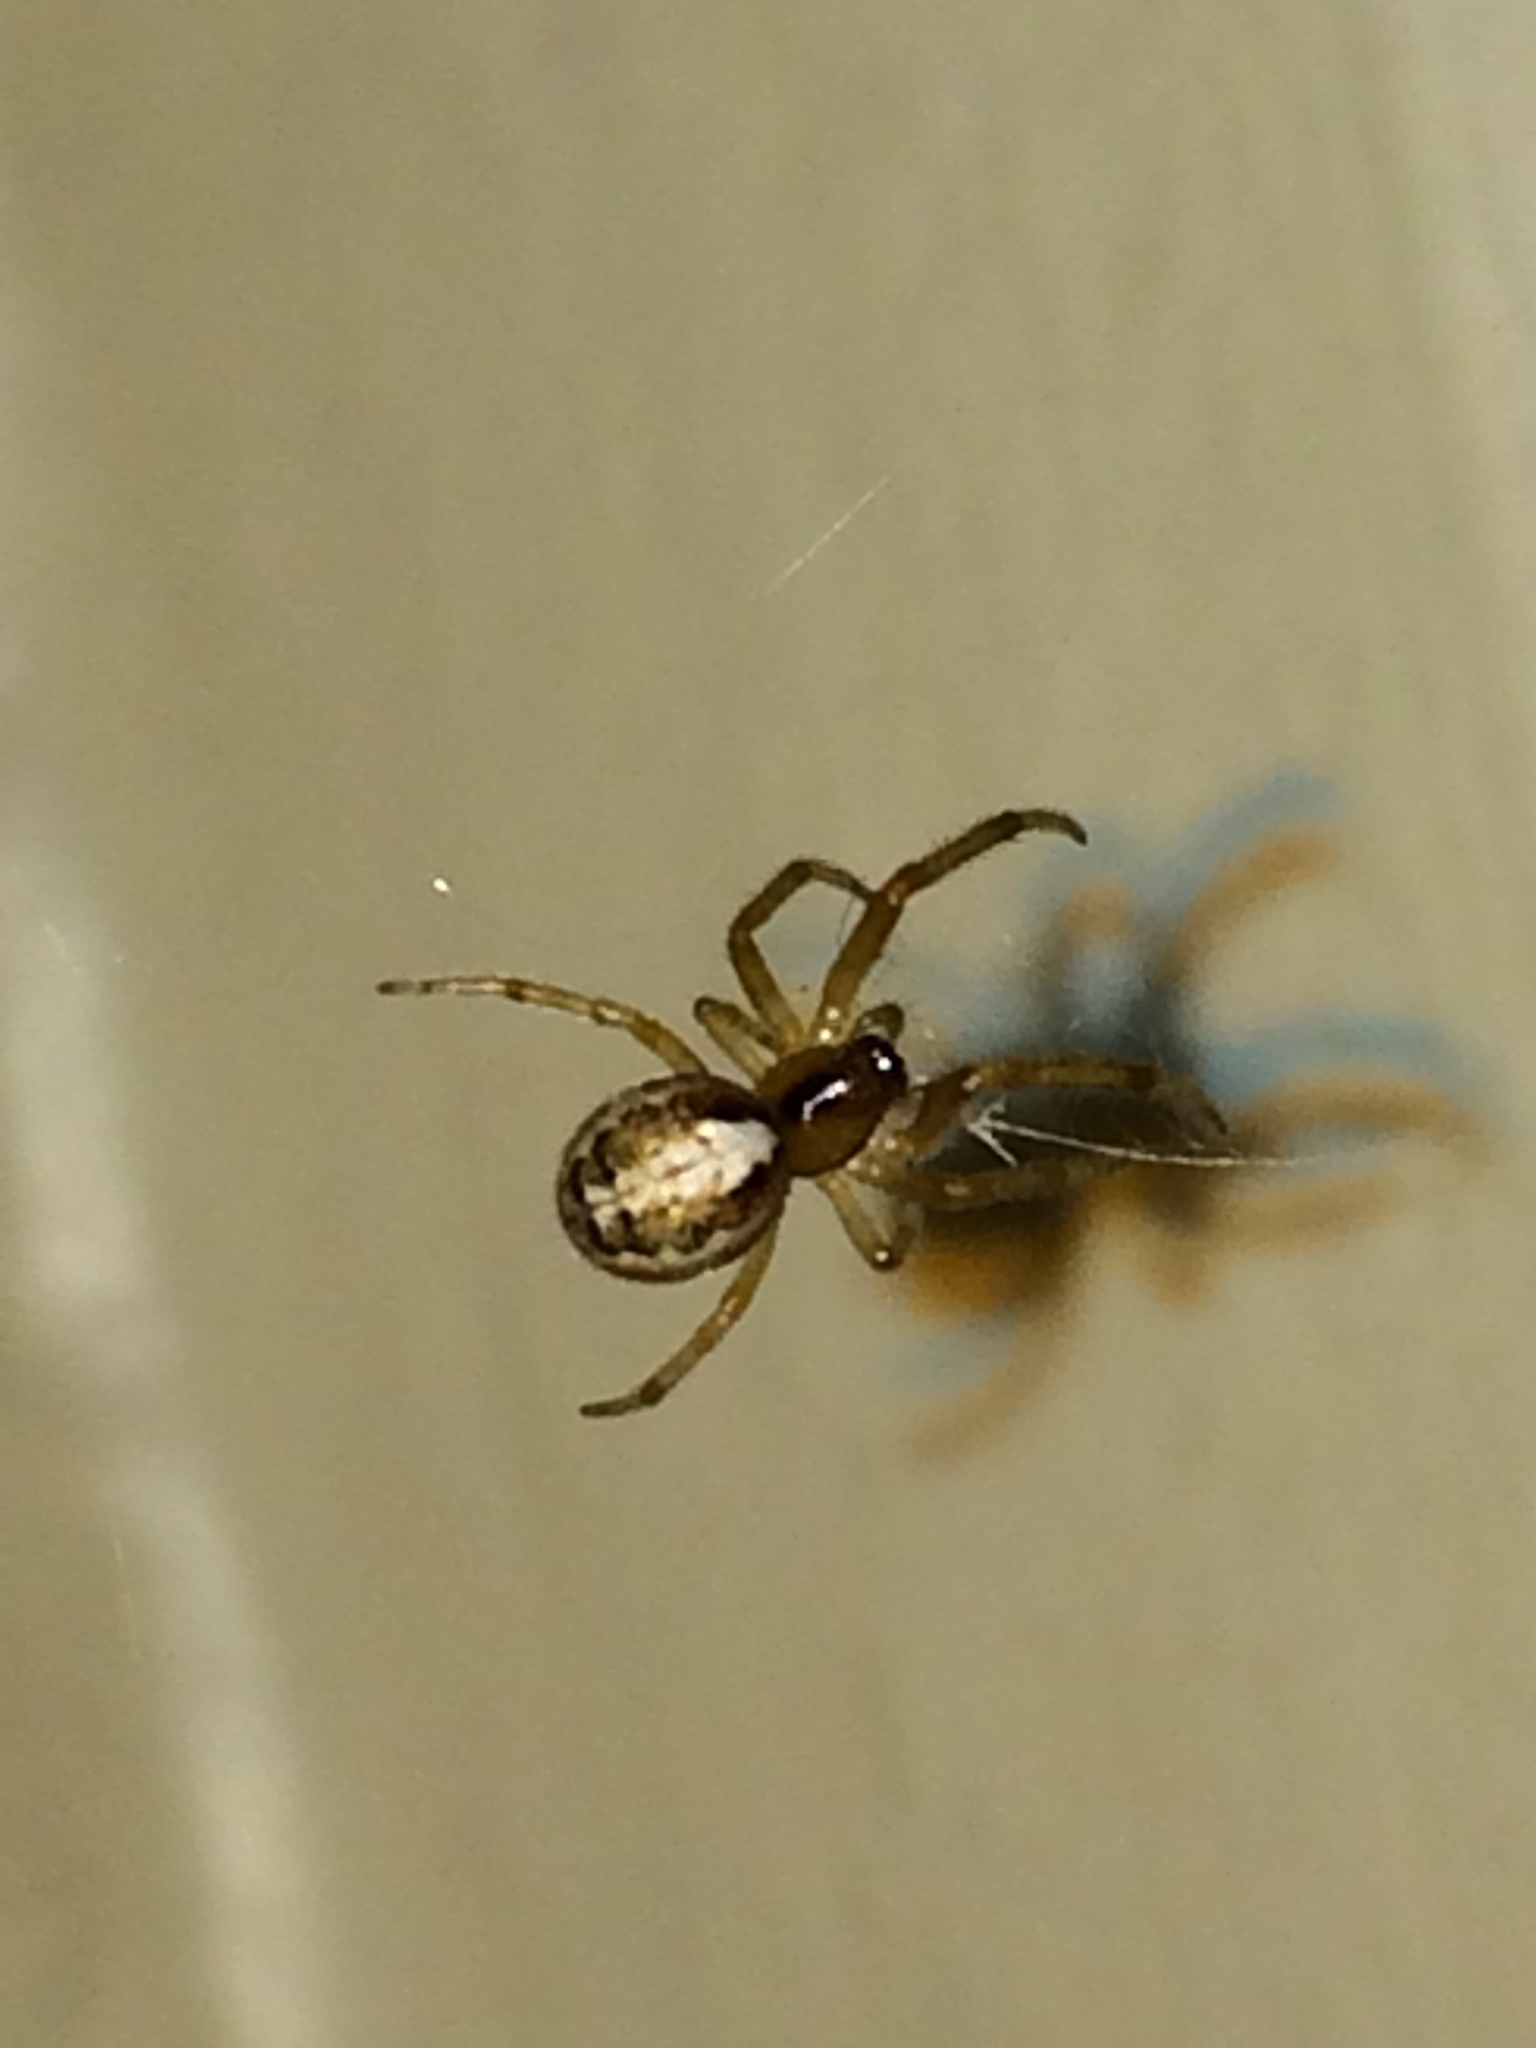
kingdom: Animalia
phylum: Arthropoda
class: Arachnida
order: Araneae
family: Araneidae
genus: Zygiella
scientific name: Zygiella x-notata
